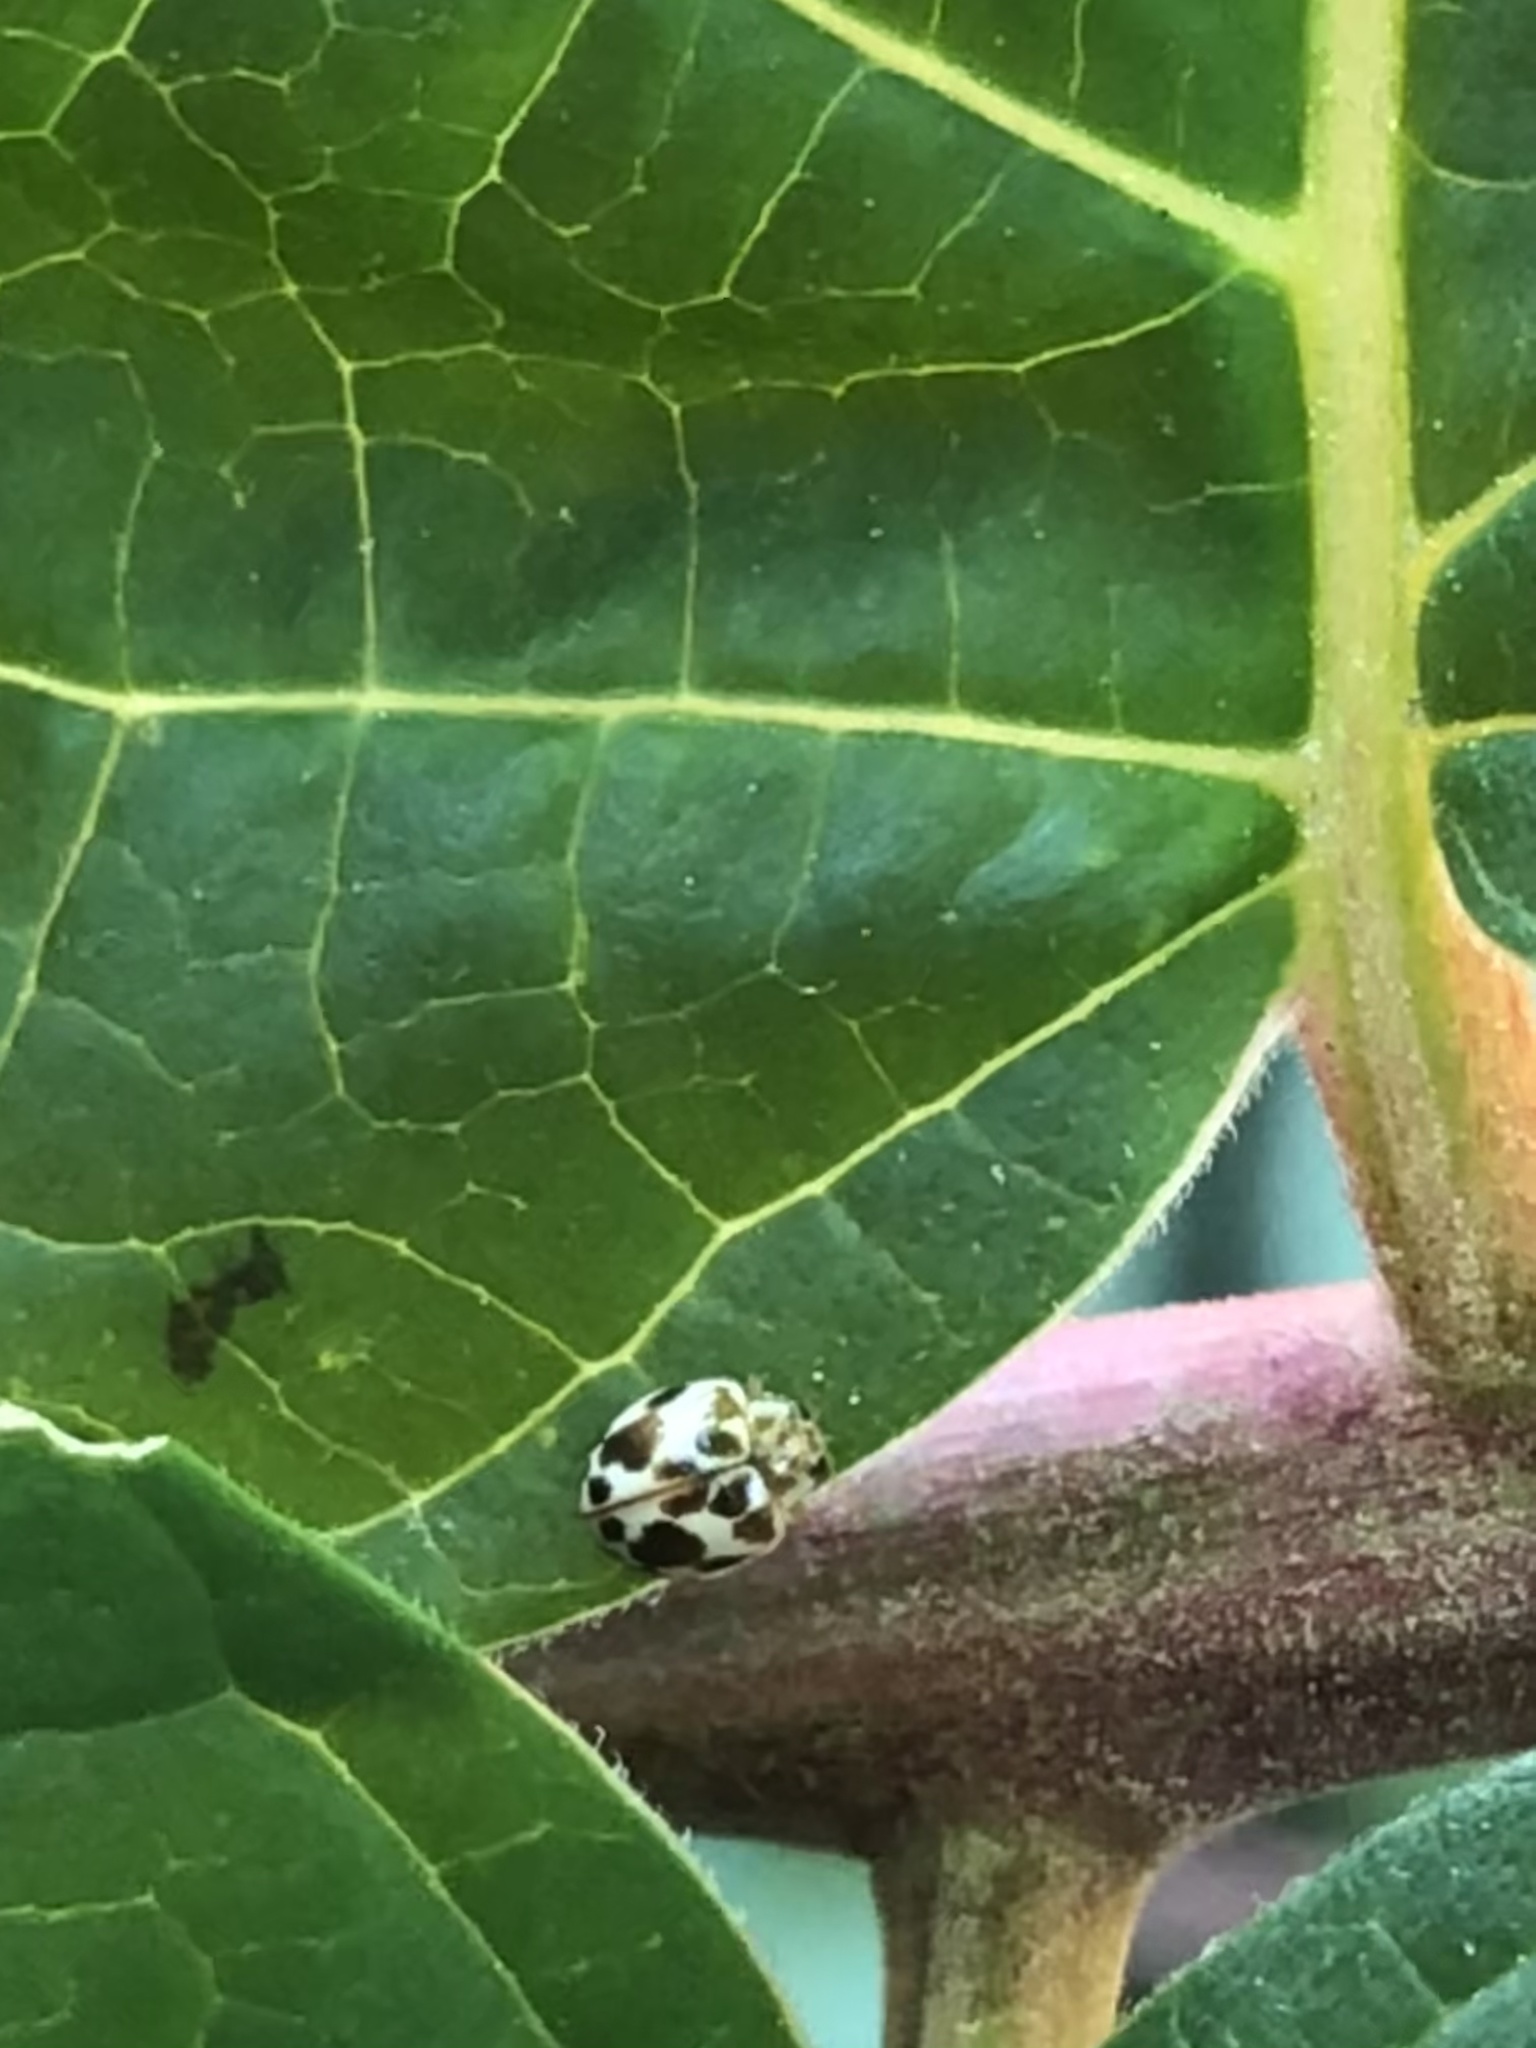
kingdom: Animalia
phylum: Arthropoda
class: Insecta
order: Coleoptera
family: Coccinellidae
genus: Psyllobora
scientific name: Psyllobora vigintimaculata
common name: Ladybird beetle
